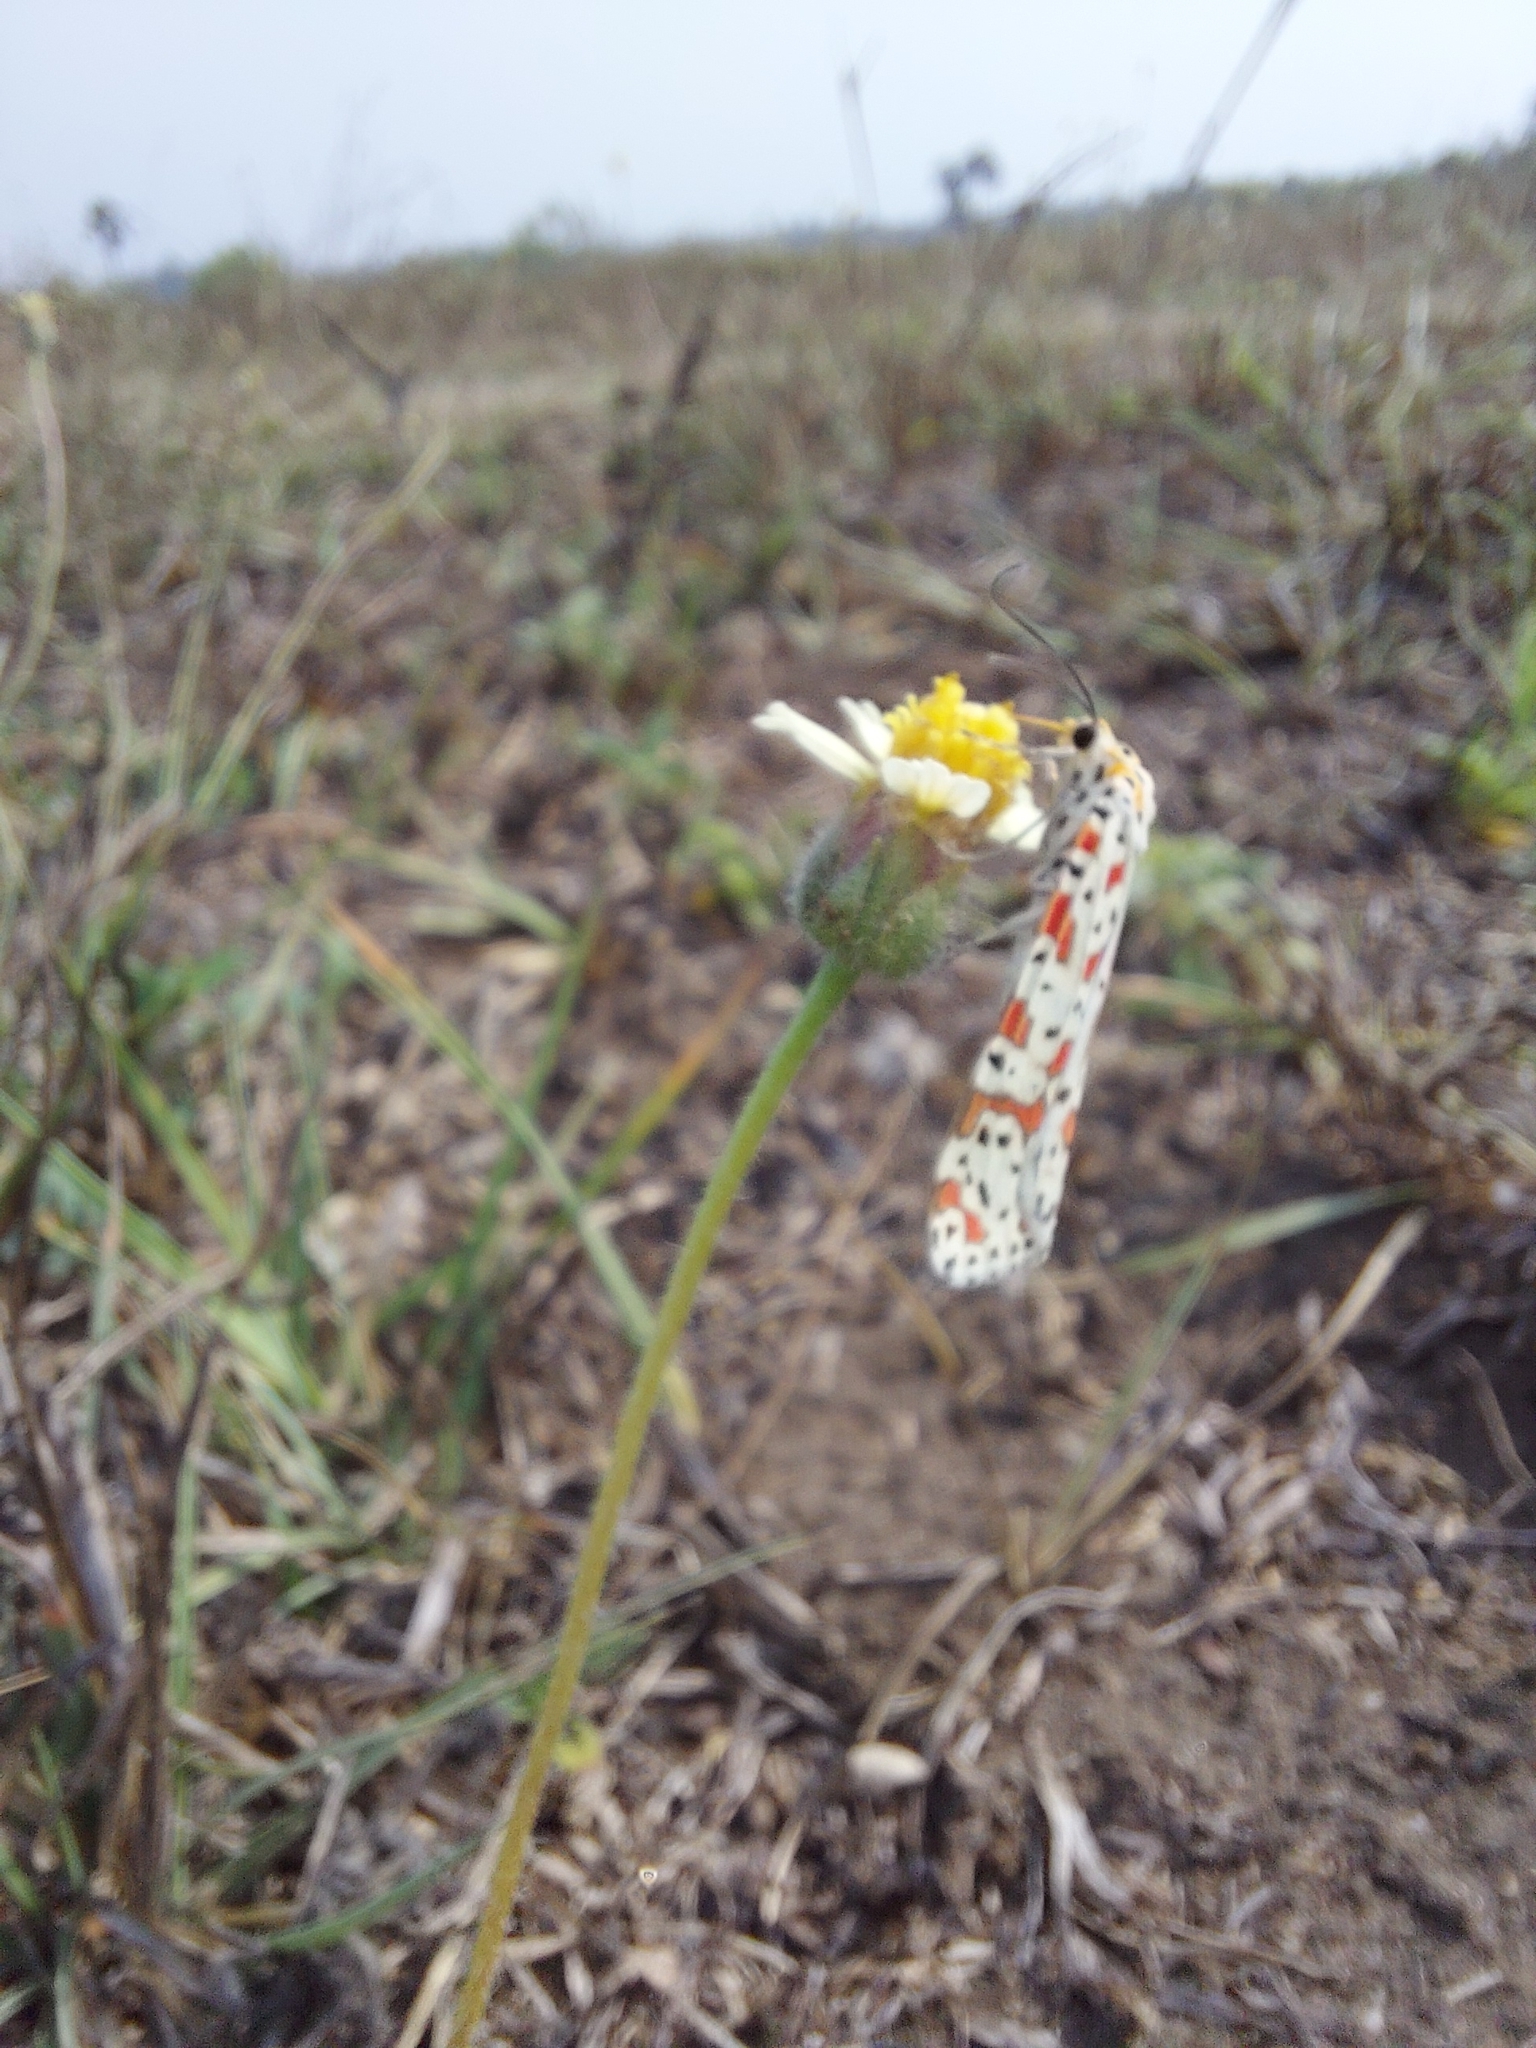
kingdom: Animalia
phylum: Arthropoda
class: Insecta
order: Lepidoptera
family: Erebidae
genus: Utetheisa
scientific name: Utetheisa lotrix
